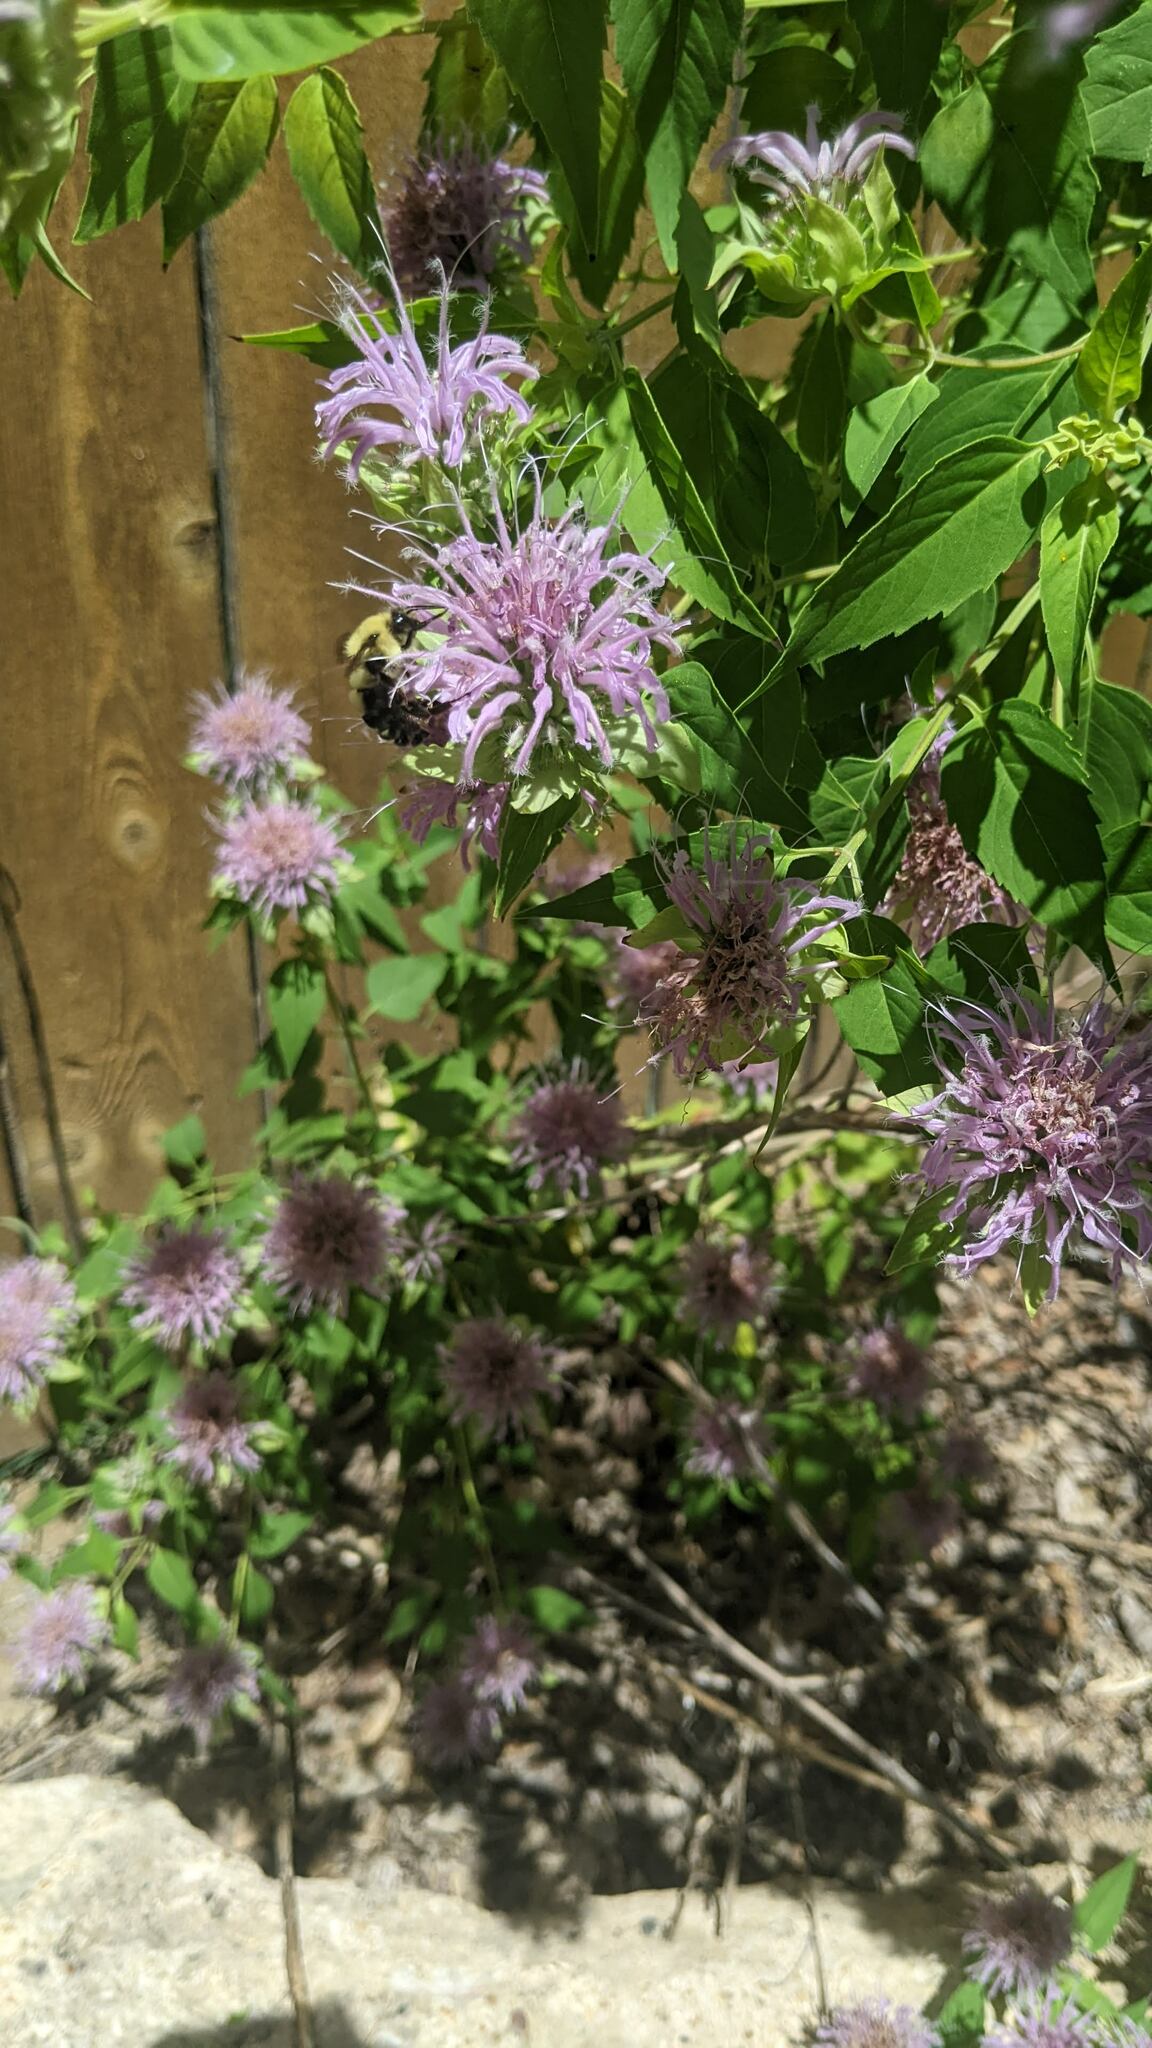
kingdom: Animalia
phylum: Arthropoda
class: Insecta
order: Hymenoptera
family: Apidae
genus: Bombus
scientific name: Bombus bimaculatus
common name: Two-spotted bumble bee
